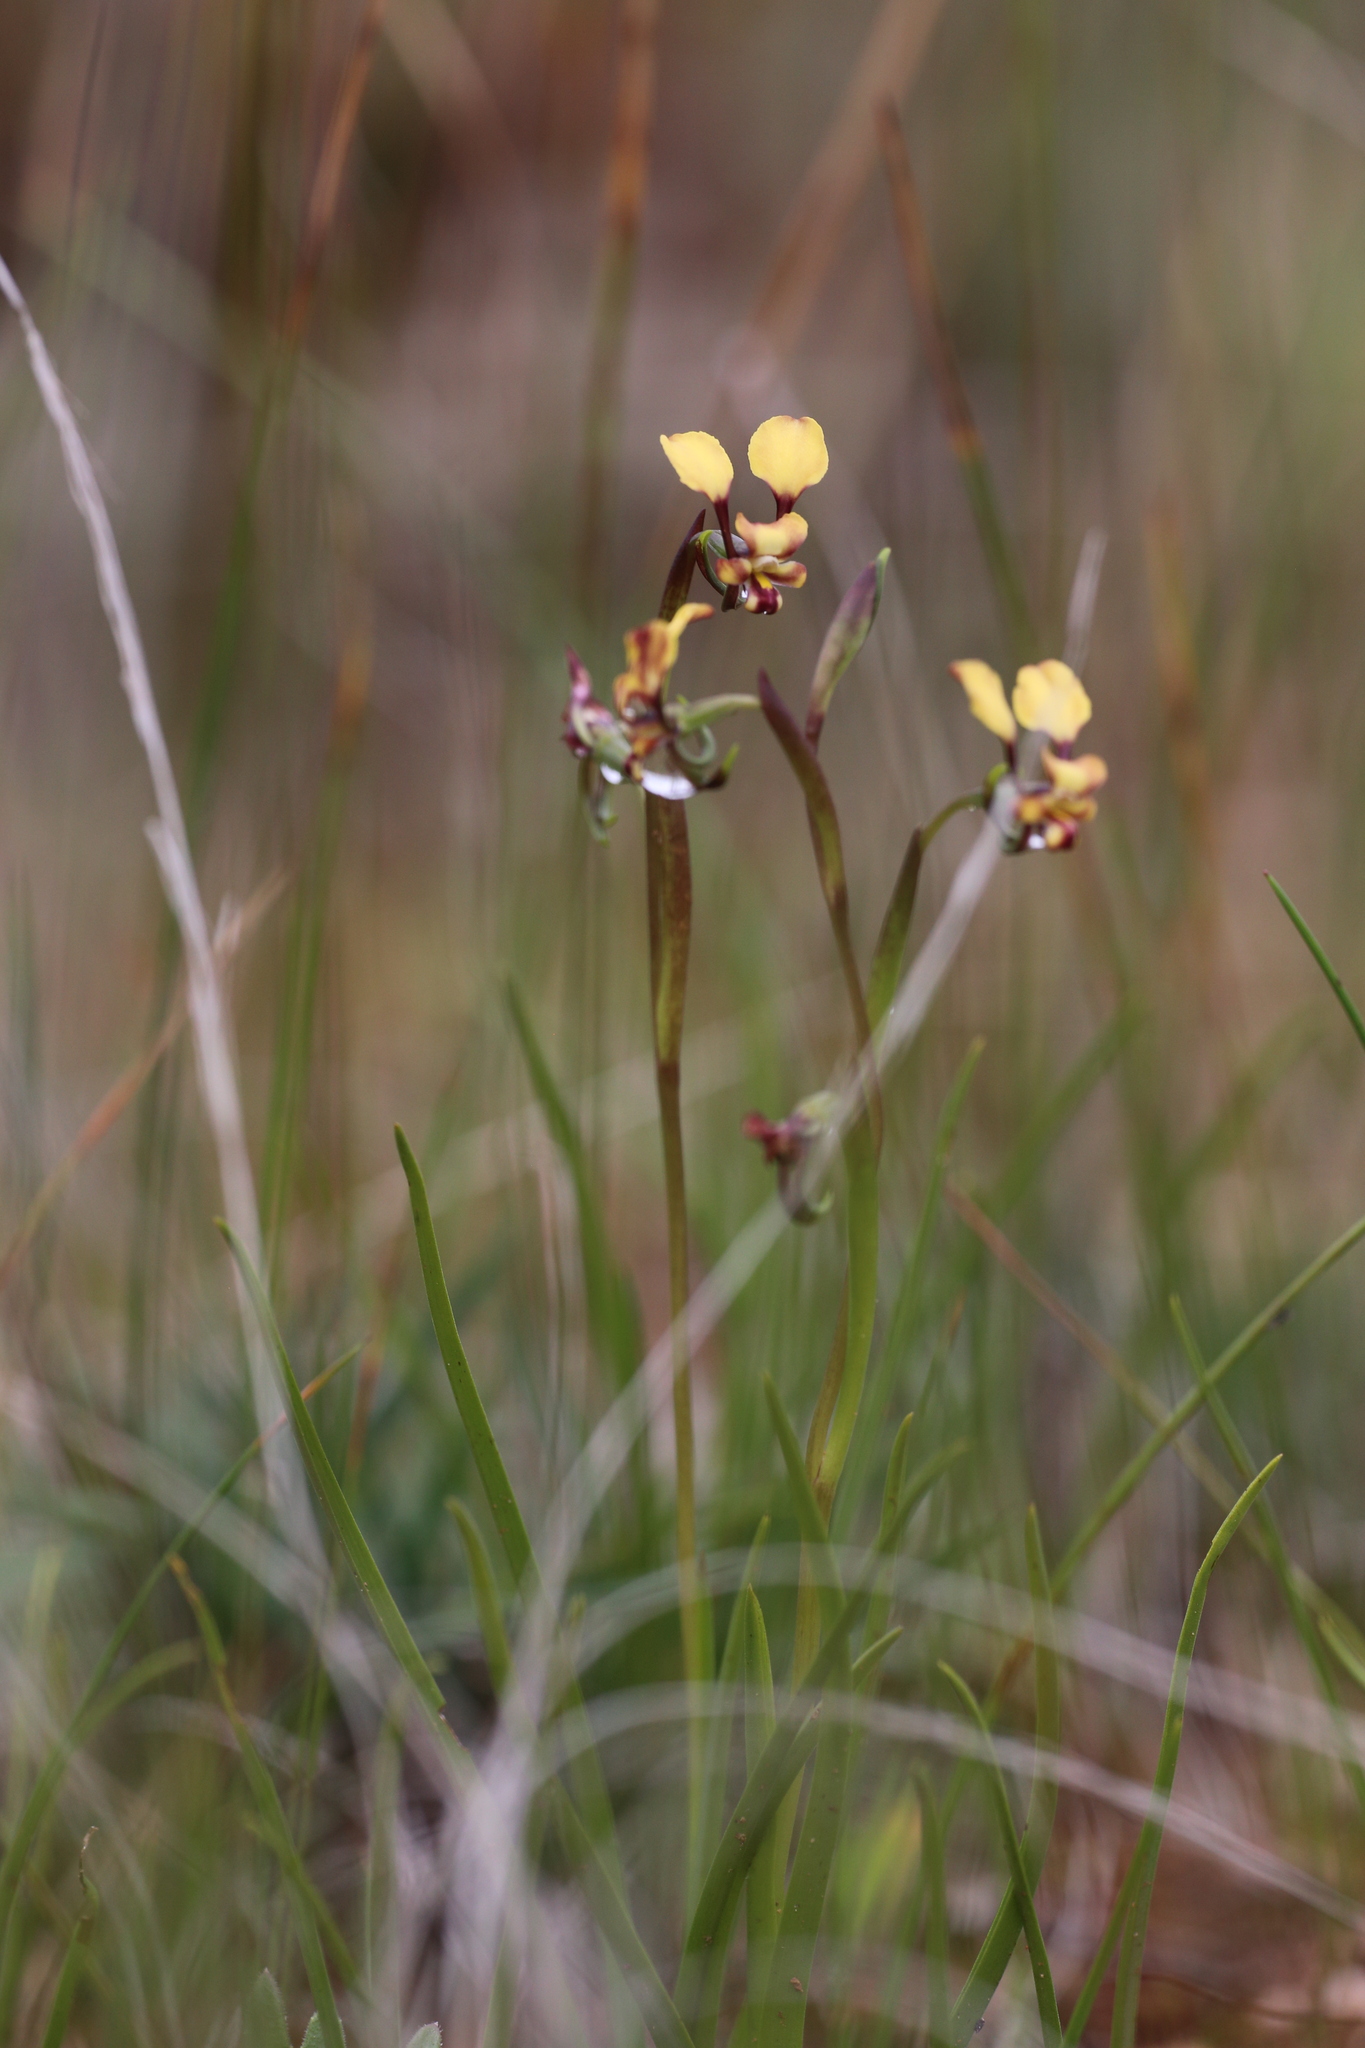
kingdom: Plantae
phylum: Tracheophyta
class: Liliopsida
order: Asparagales
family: Orchidaceae
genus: Diuris
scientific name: Diuris recurva
